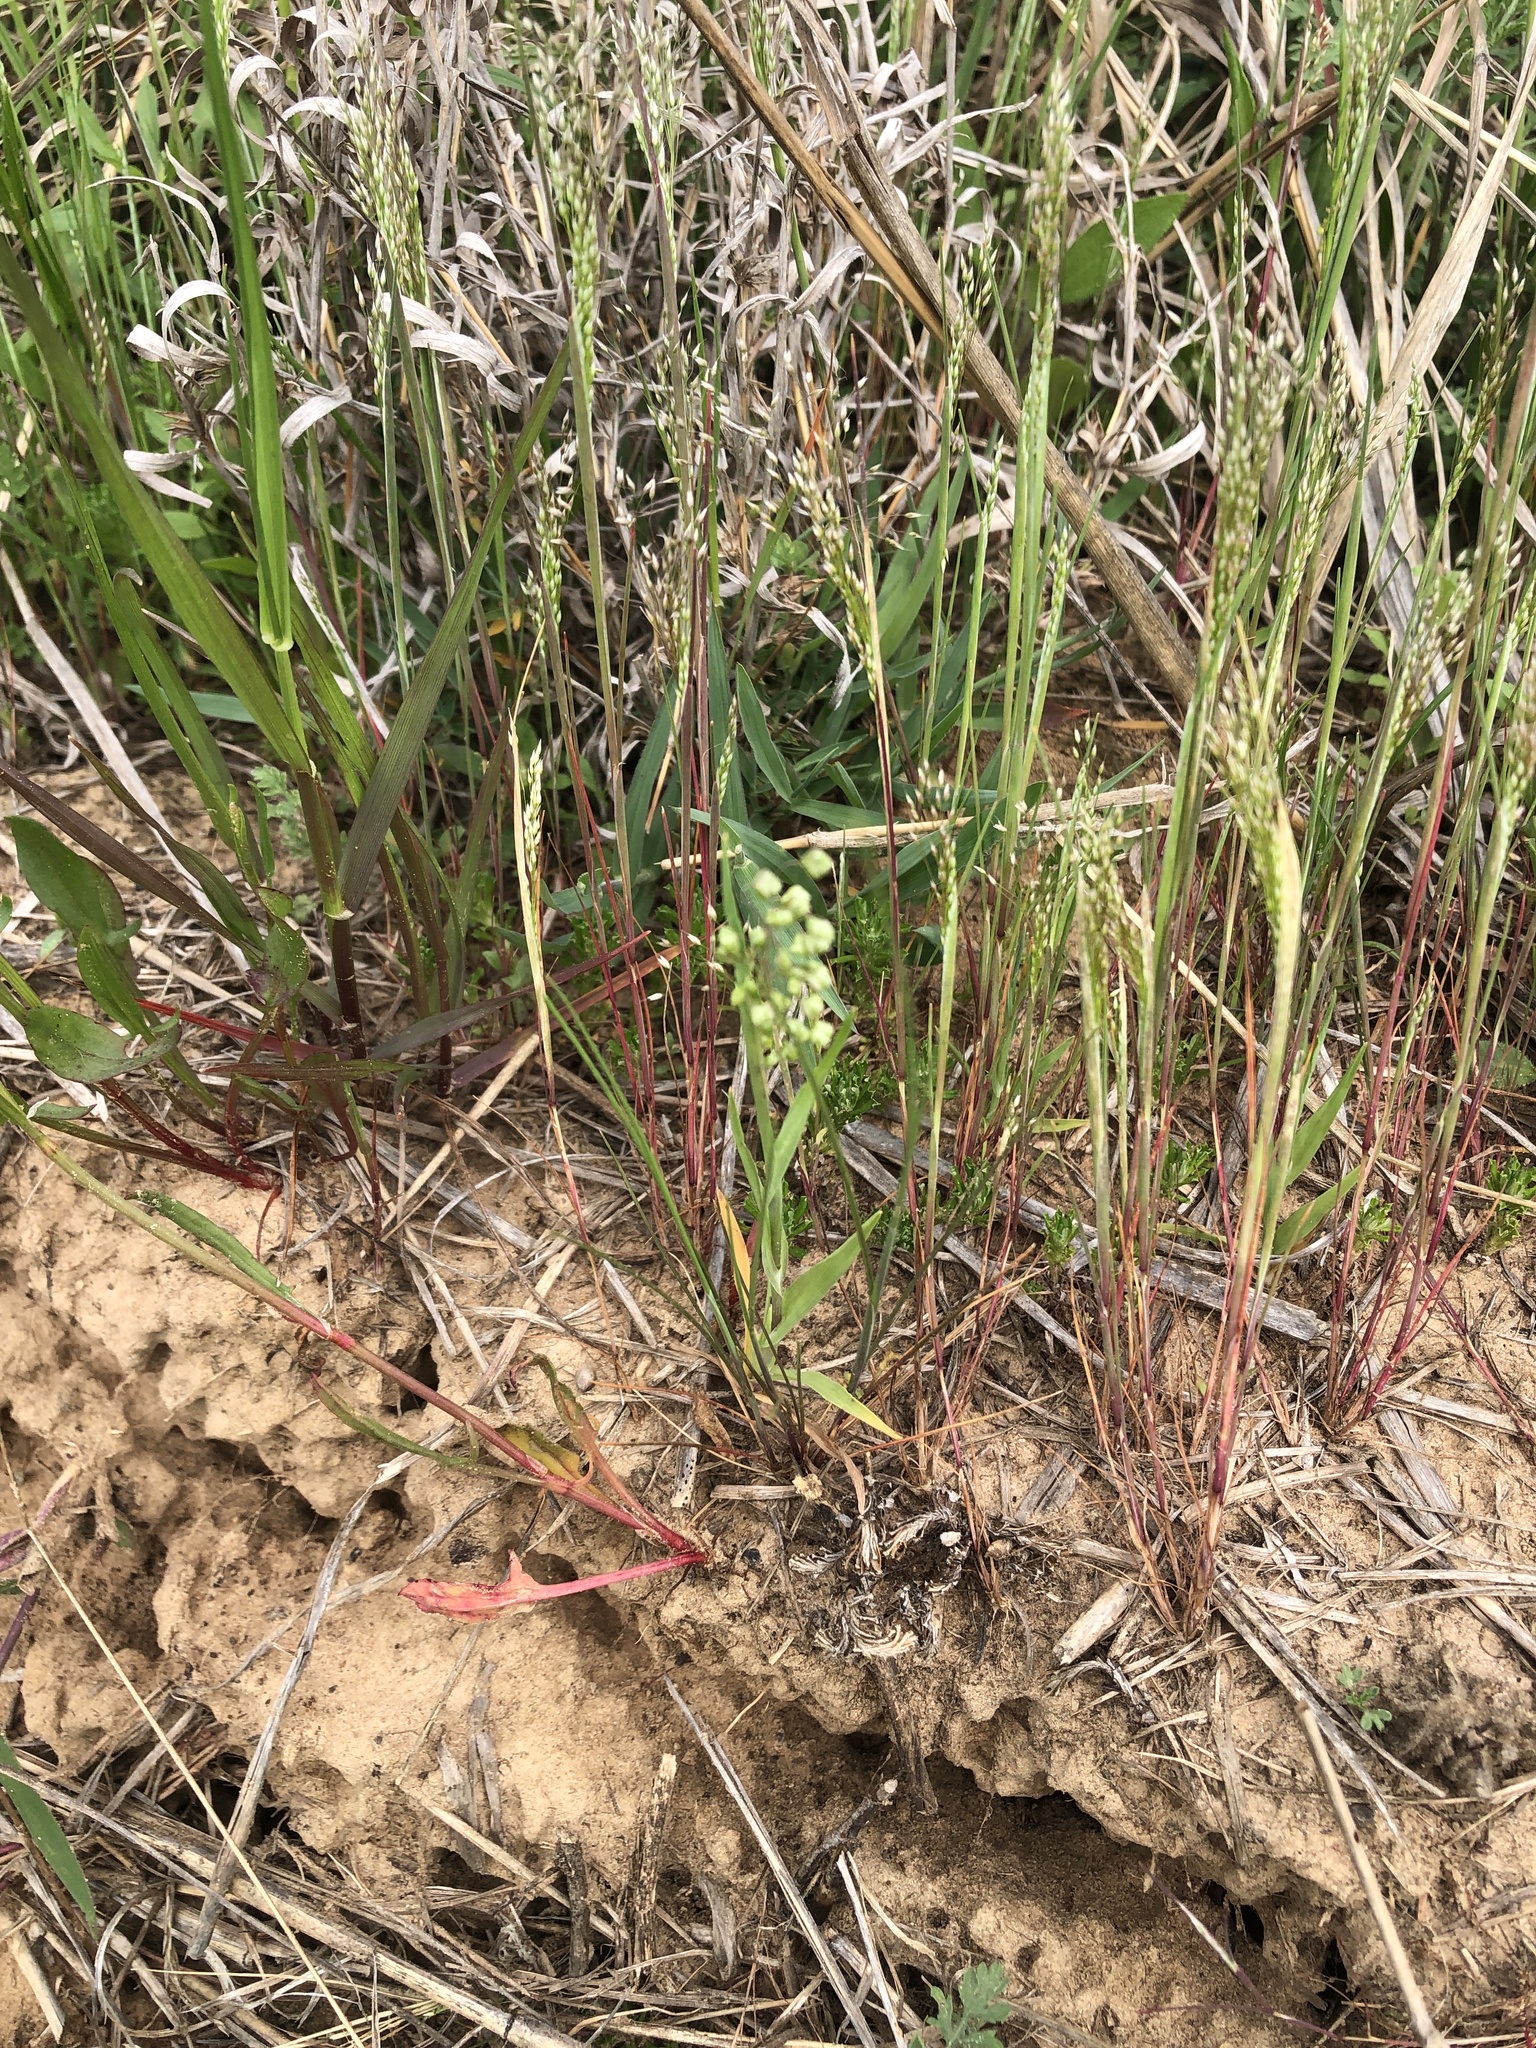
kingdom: Plantae
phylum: Tracheophyta
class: Liliopsida
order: Poales
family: Poaceae
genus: Briza
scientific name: Briza minor
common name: Lesser quaking-grass
